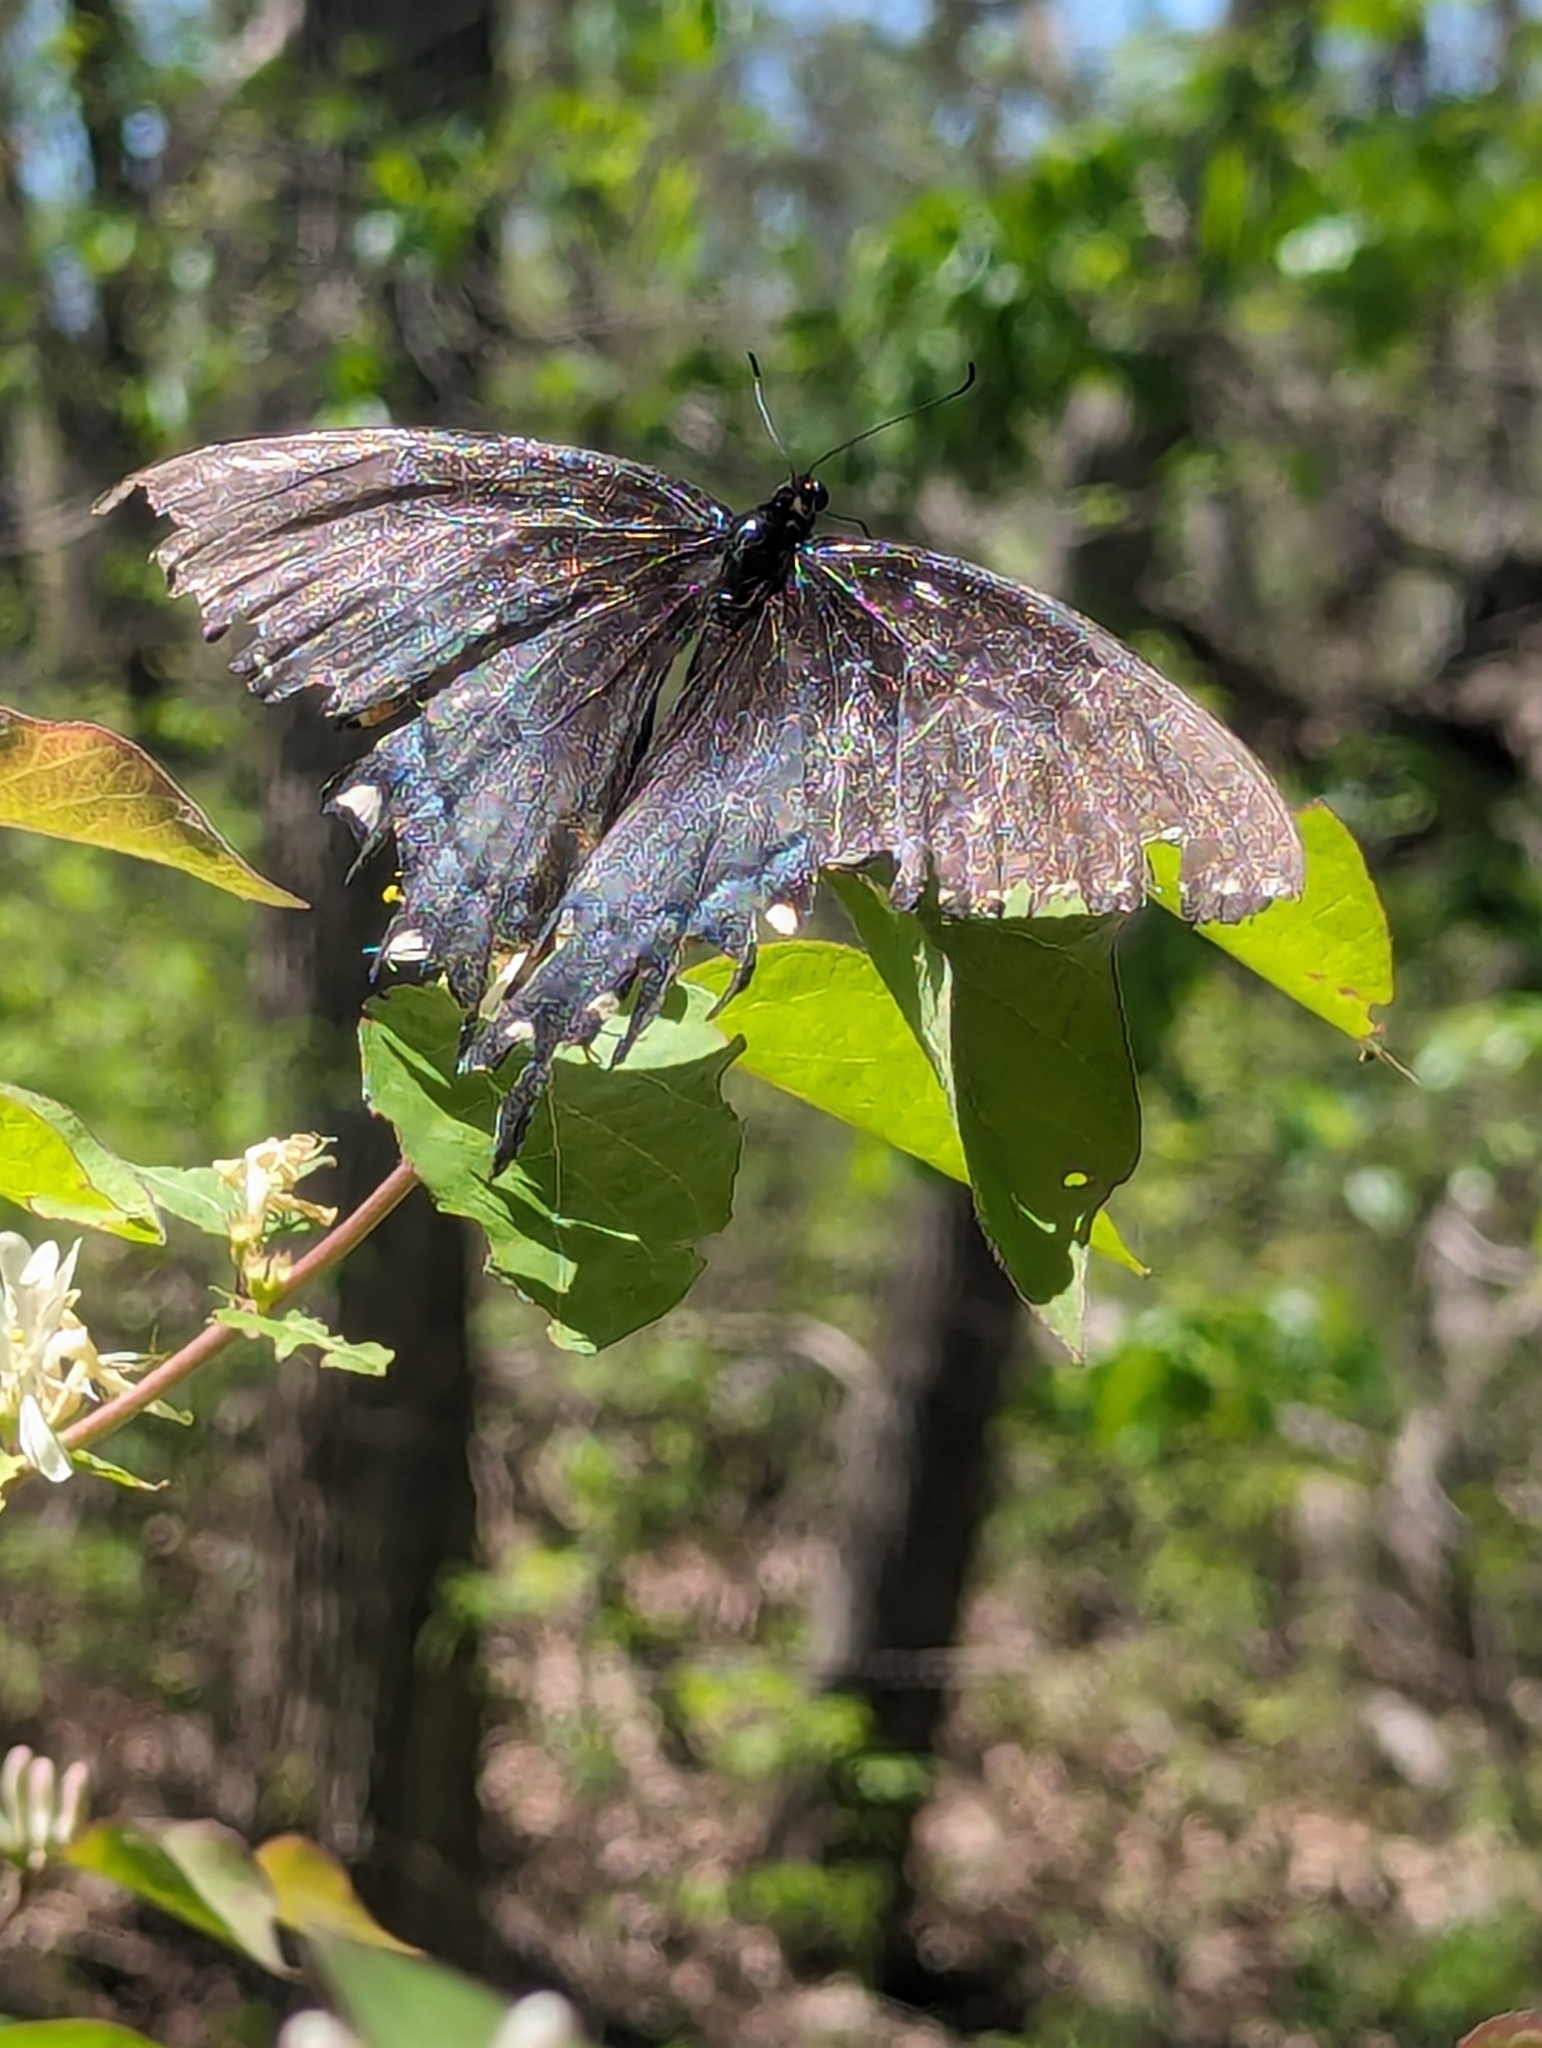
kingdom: Animalia
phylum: Arthropoda
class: Insecta
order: Lepidoptera
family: Papilionidae
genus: Papilio
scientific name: Papilio glaucus
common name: Tiger swallowtail
